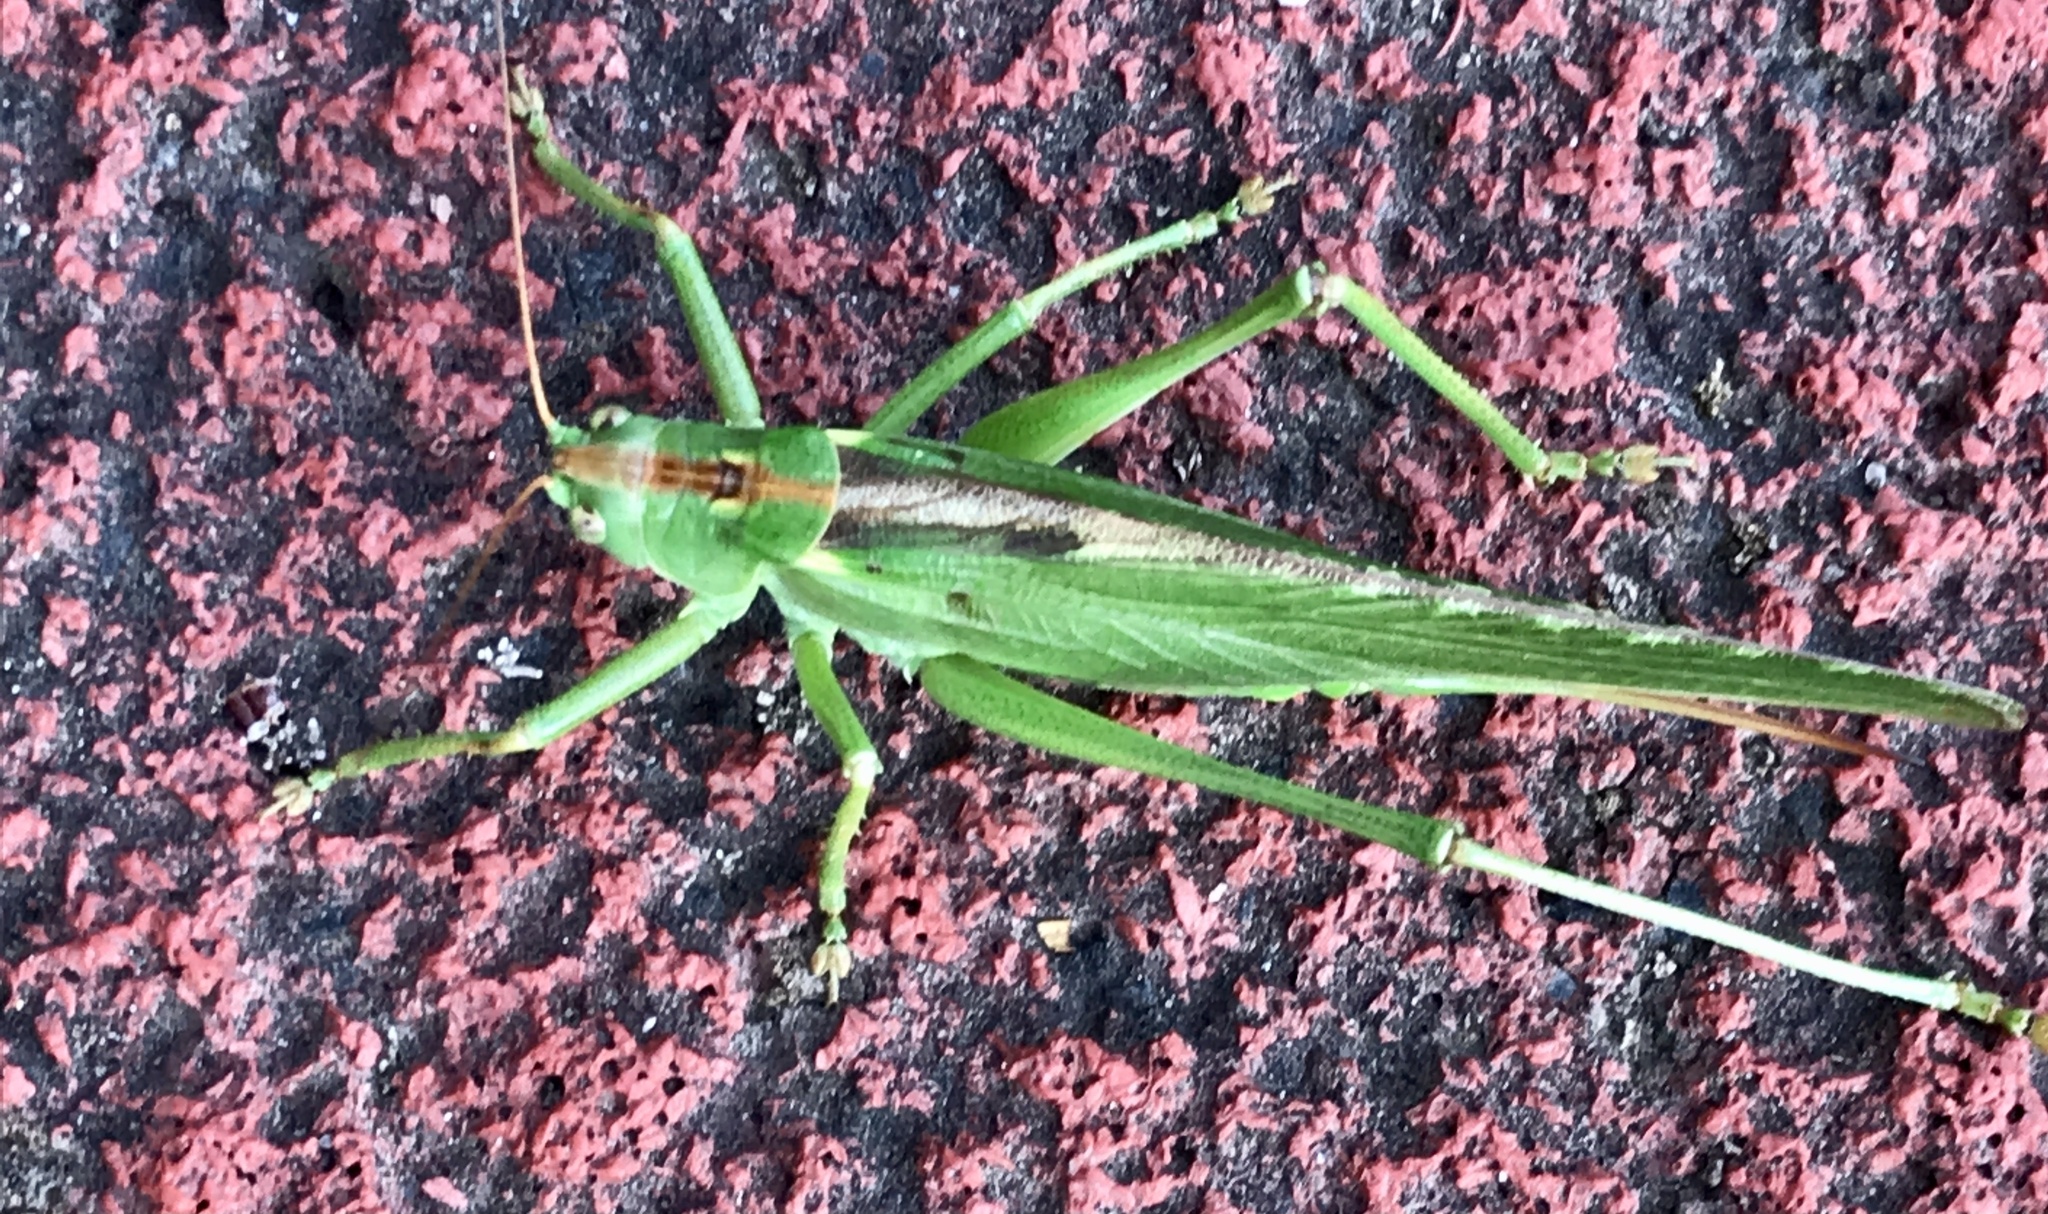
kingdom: Animalia
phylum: Arthropoda
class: Insecta
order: Orthoptera
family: Tettigoniidae
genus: Tettigonia
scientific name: Tettigonia viridissima
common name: Great green bush-cricket
